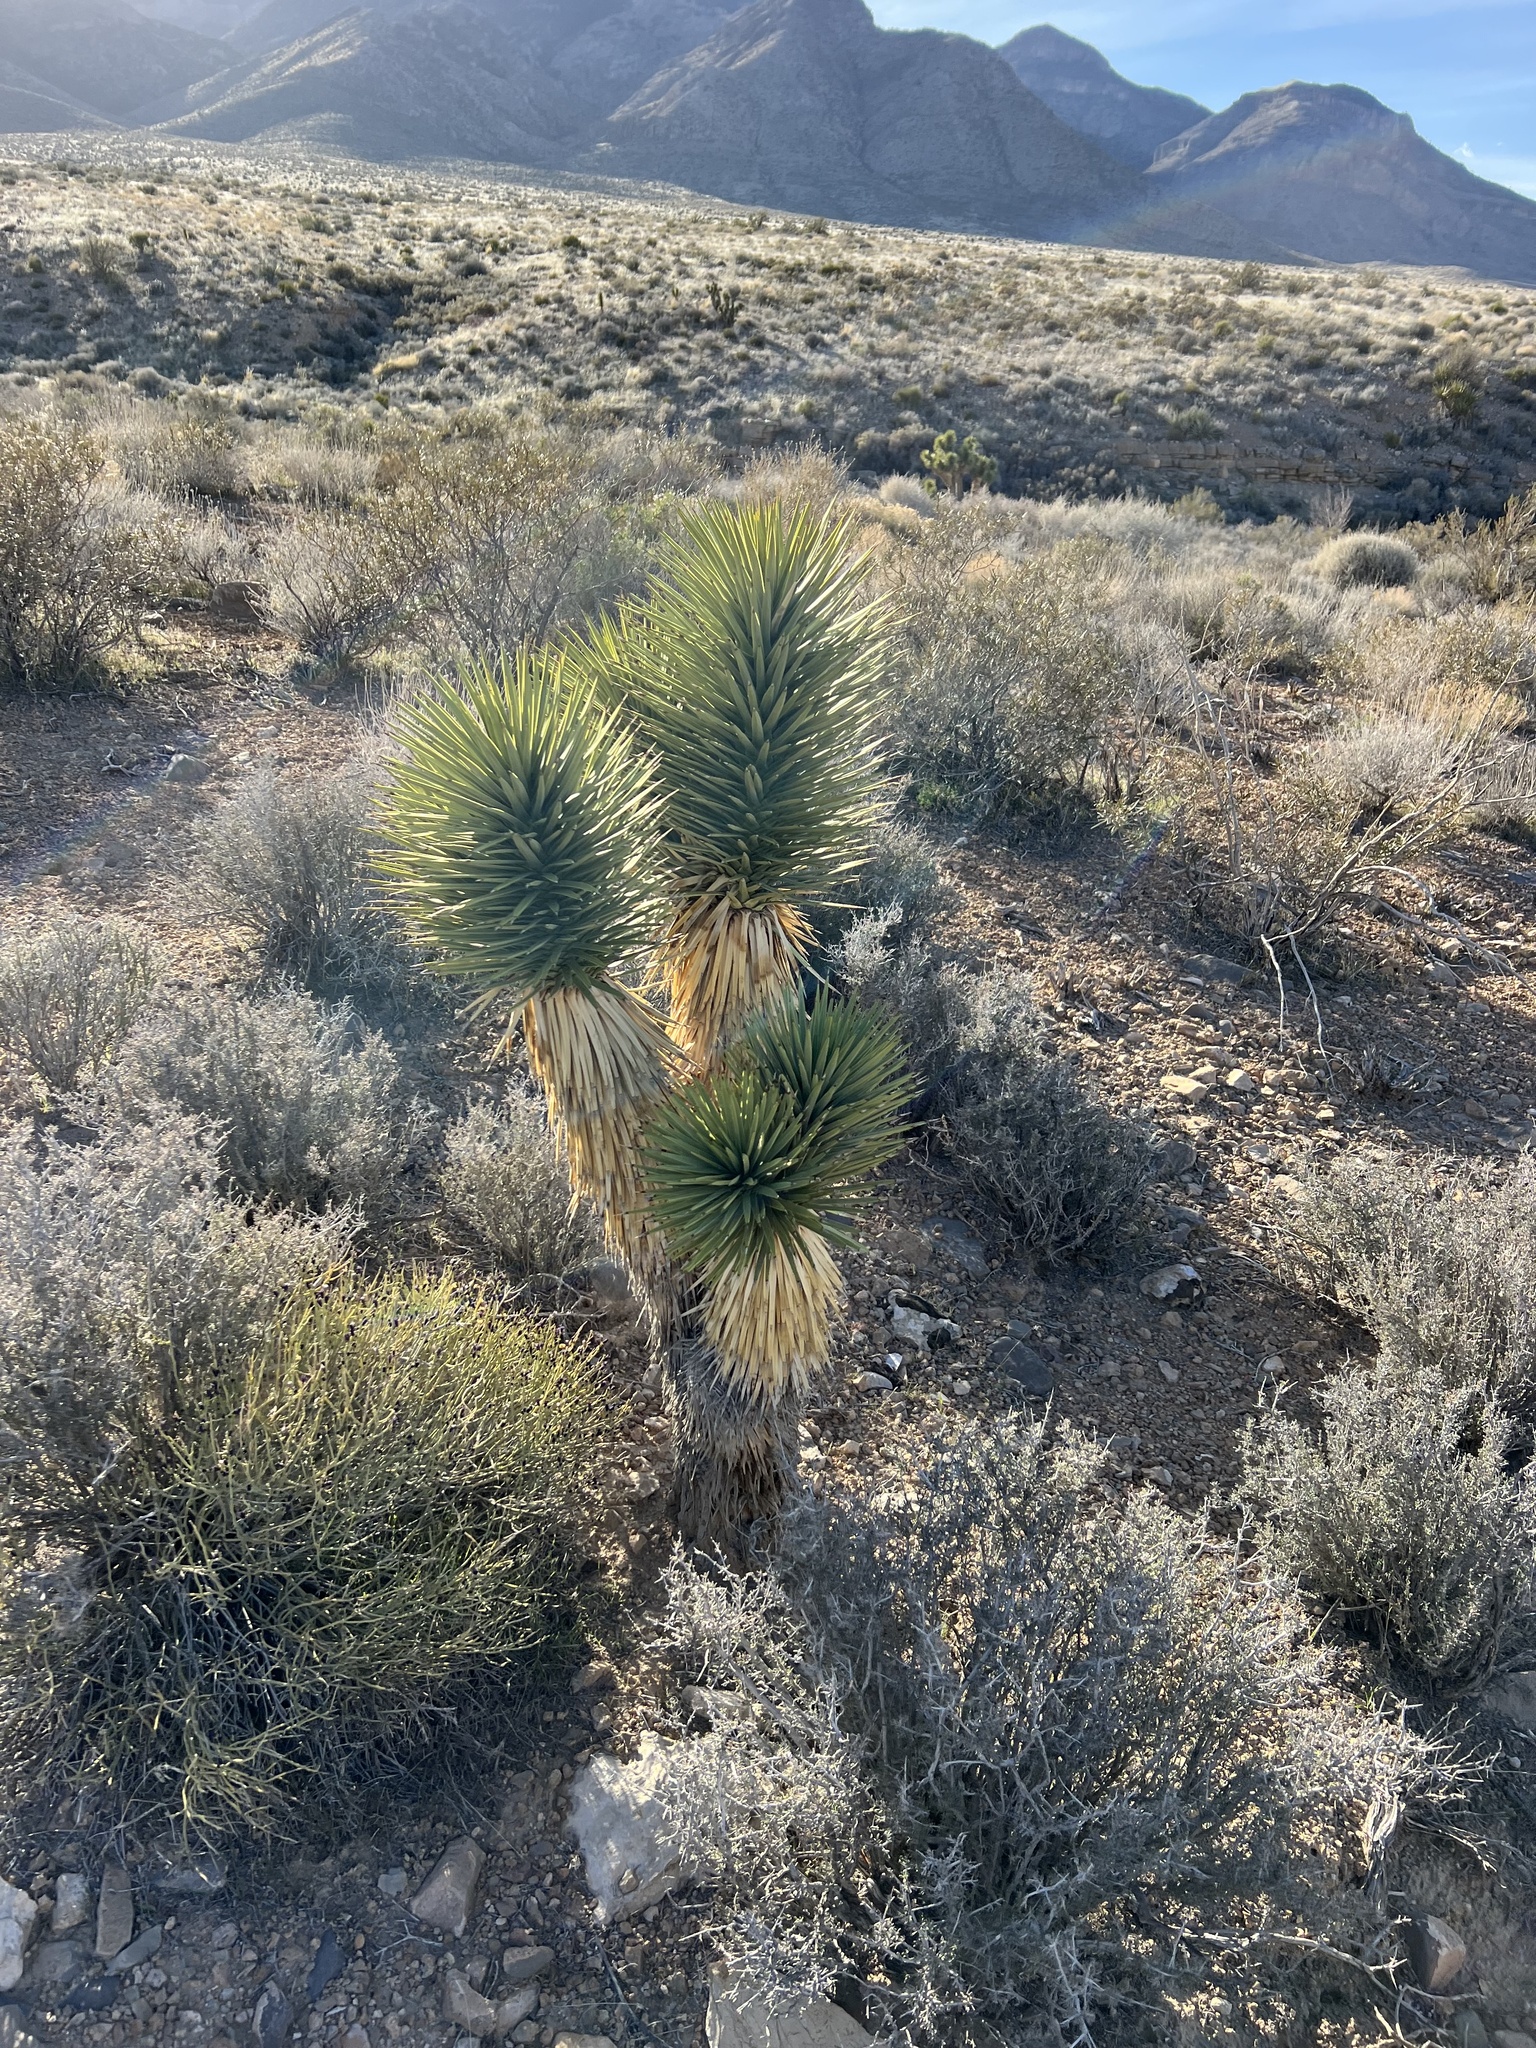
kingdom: Plantae
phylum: Tracheophyta
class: Liliopsida
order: Asparagales
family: Asparagaceae
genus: Yucca
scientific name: Yucca brevifolia
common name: Joshua tree
